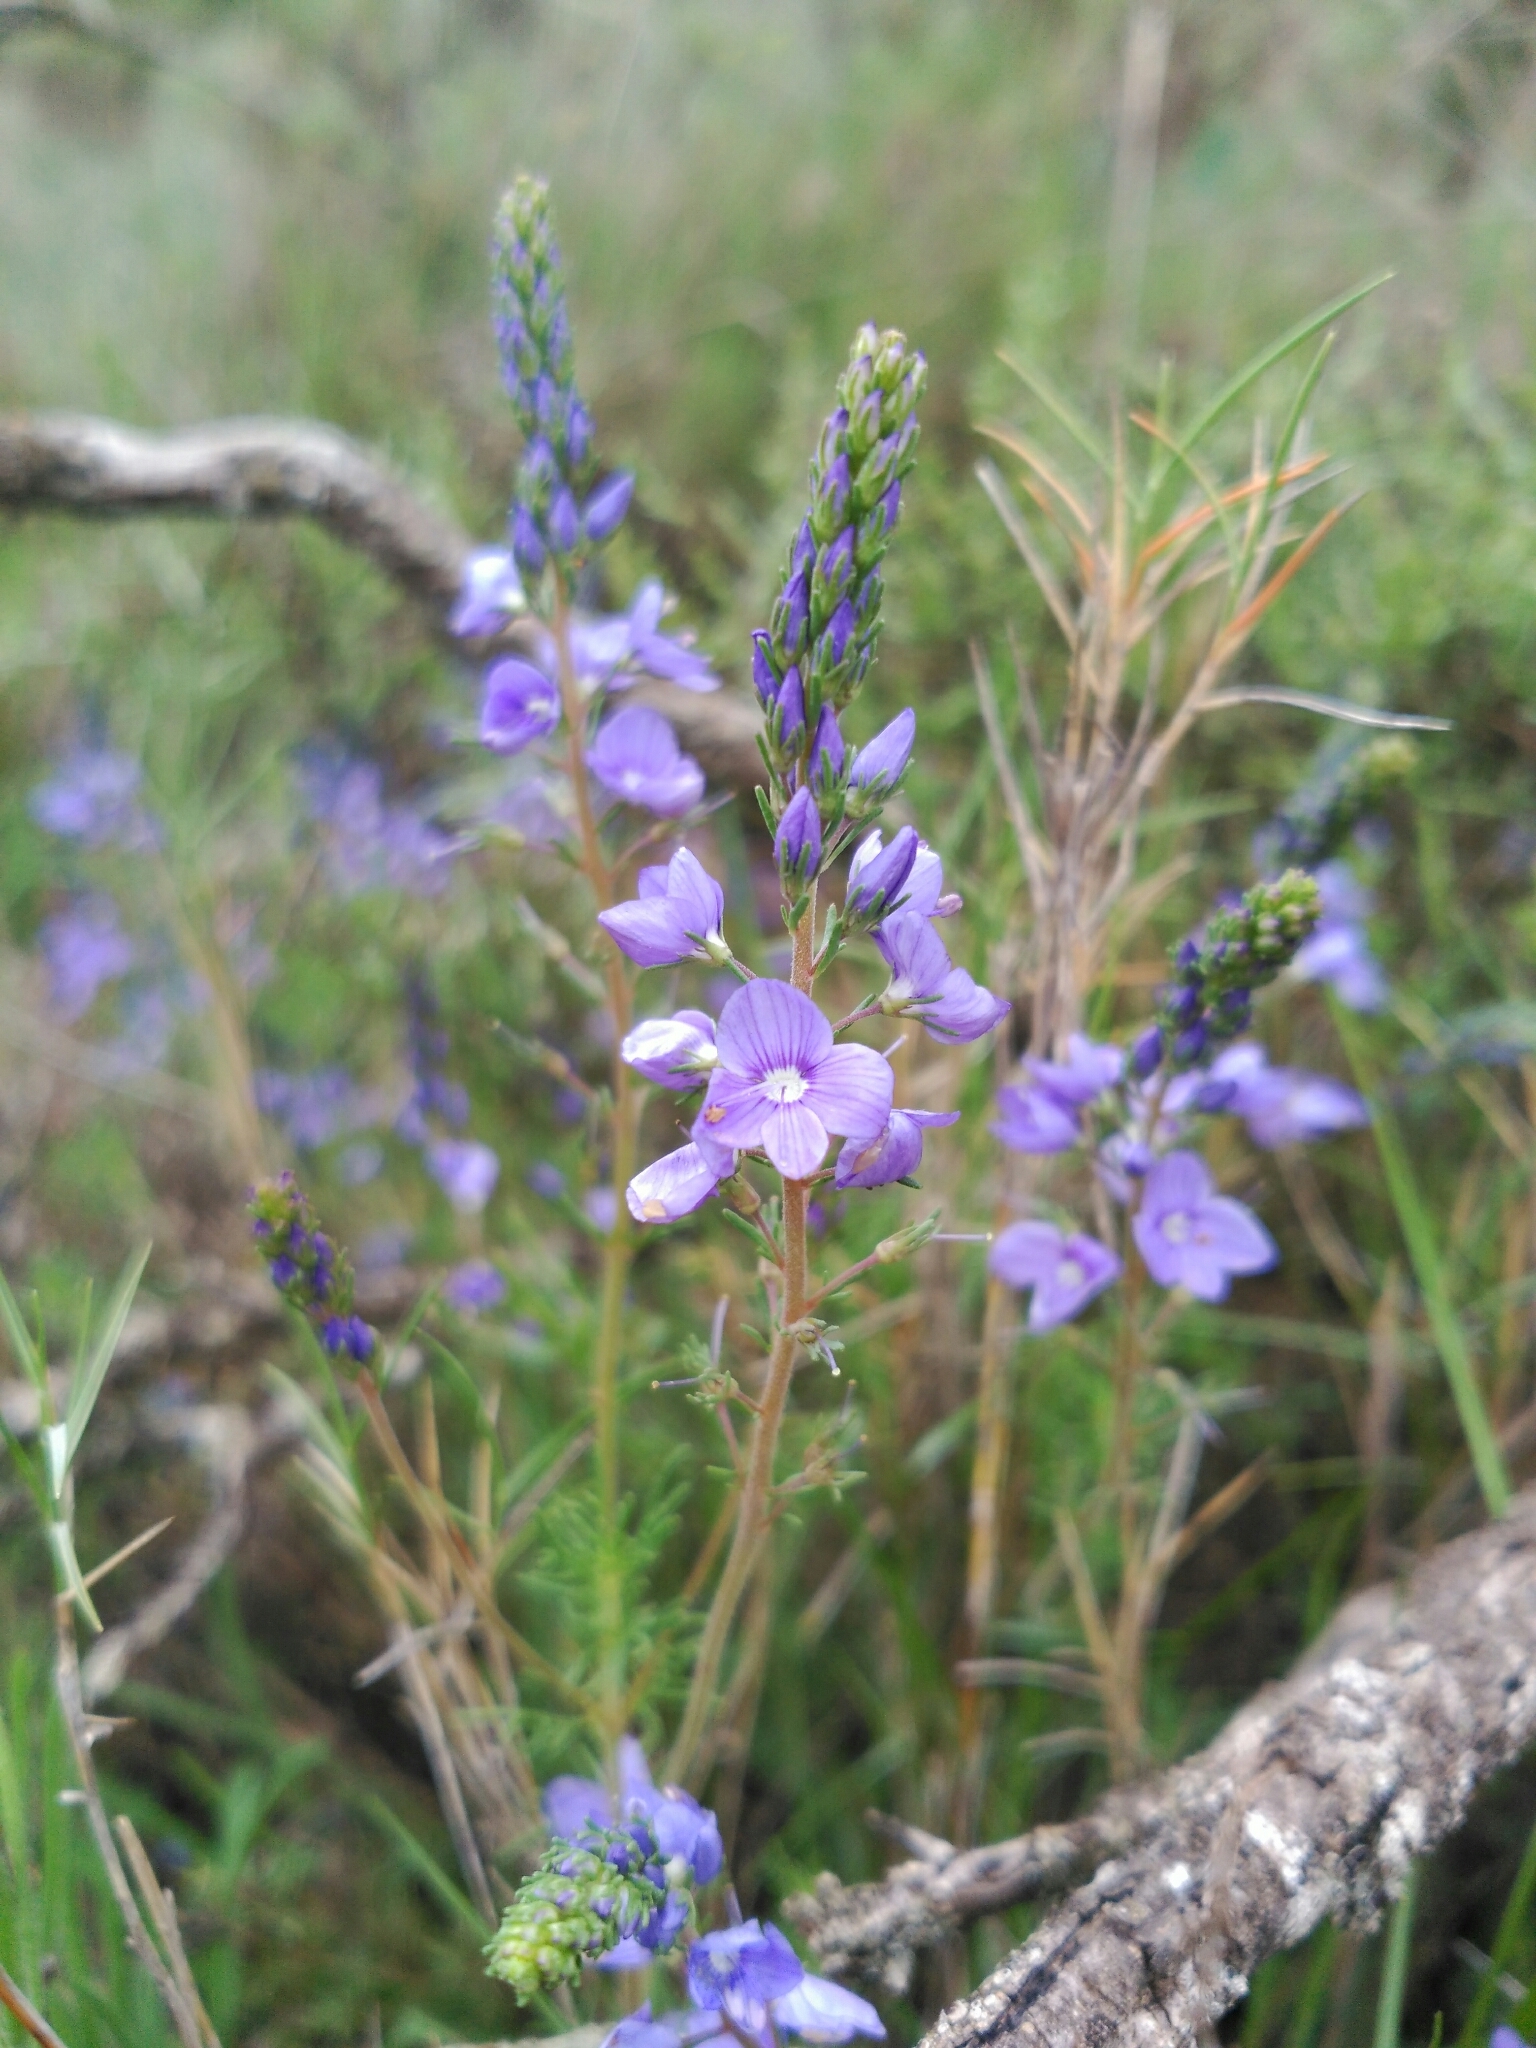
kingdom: Plantae
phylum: Tracheophyta
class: Magnoliopsida
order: Lamiales
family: Plantaginaceae
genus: Veronica
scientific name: Veronica tenuifolia
